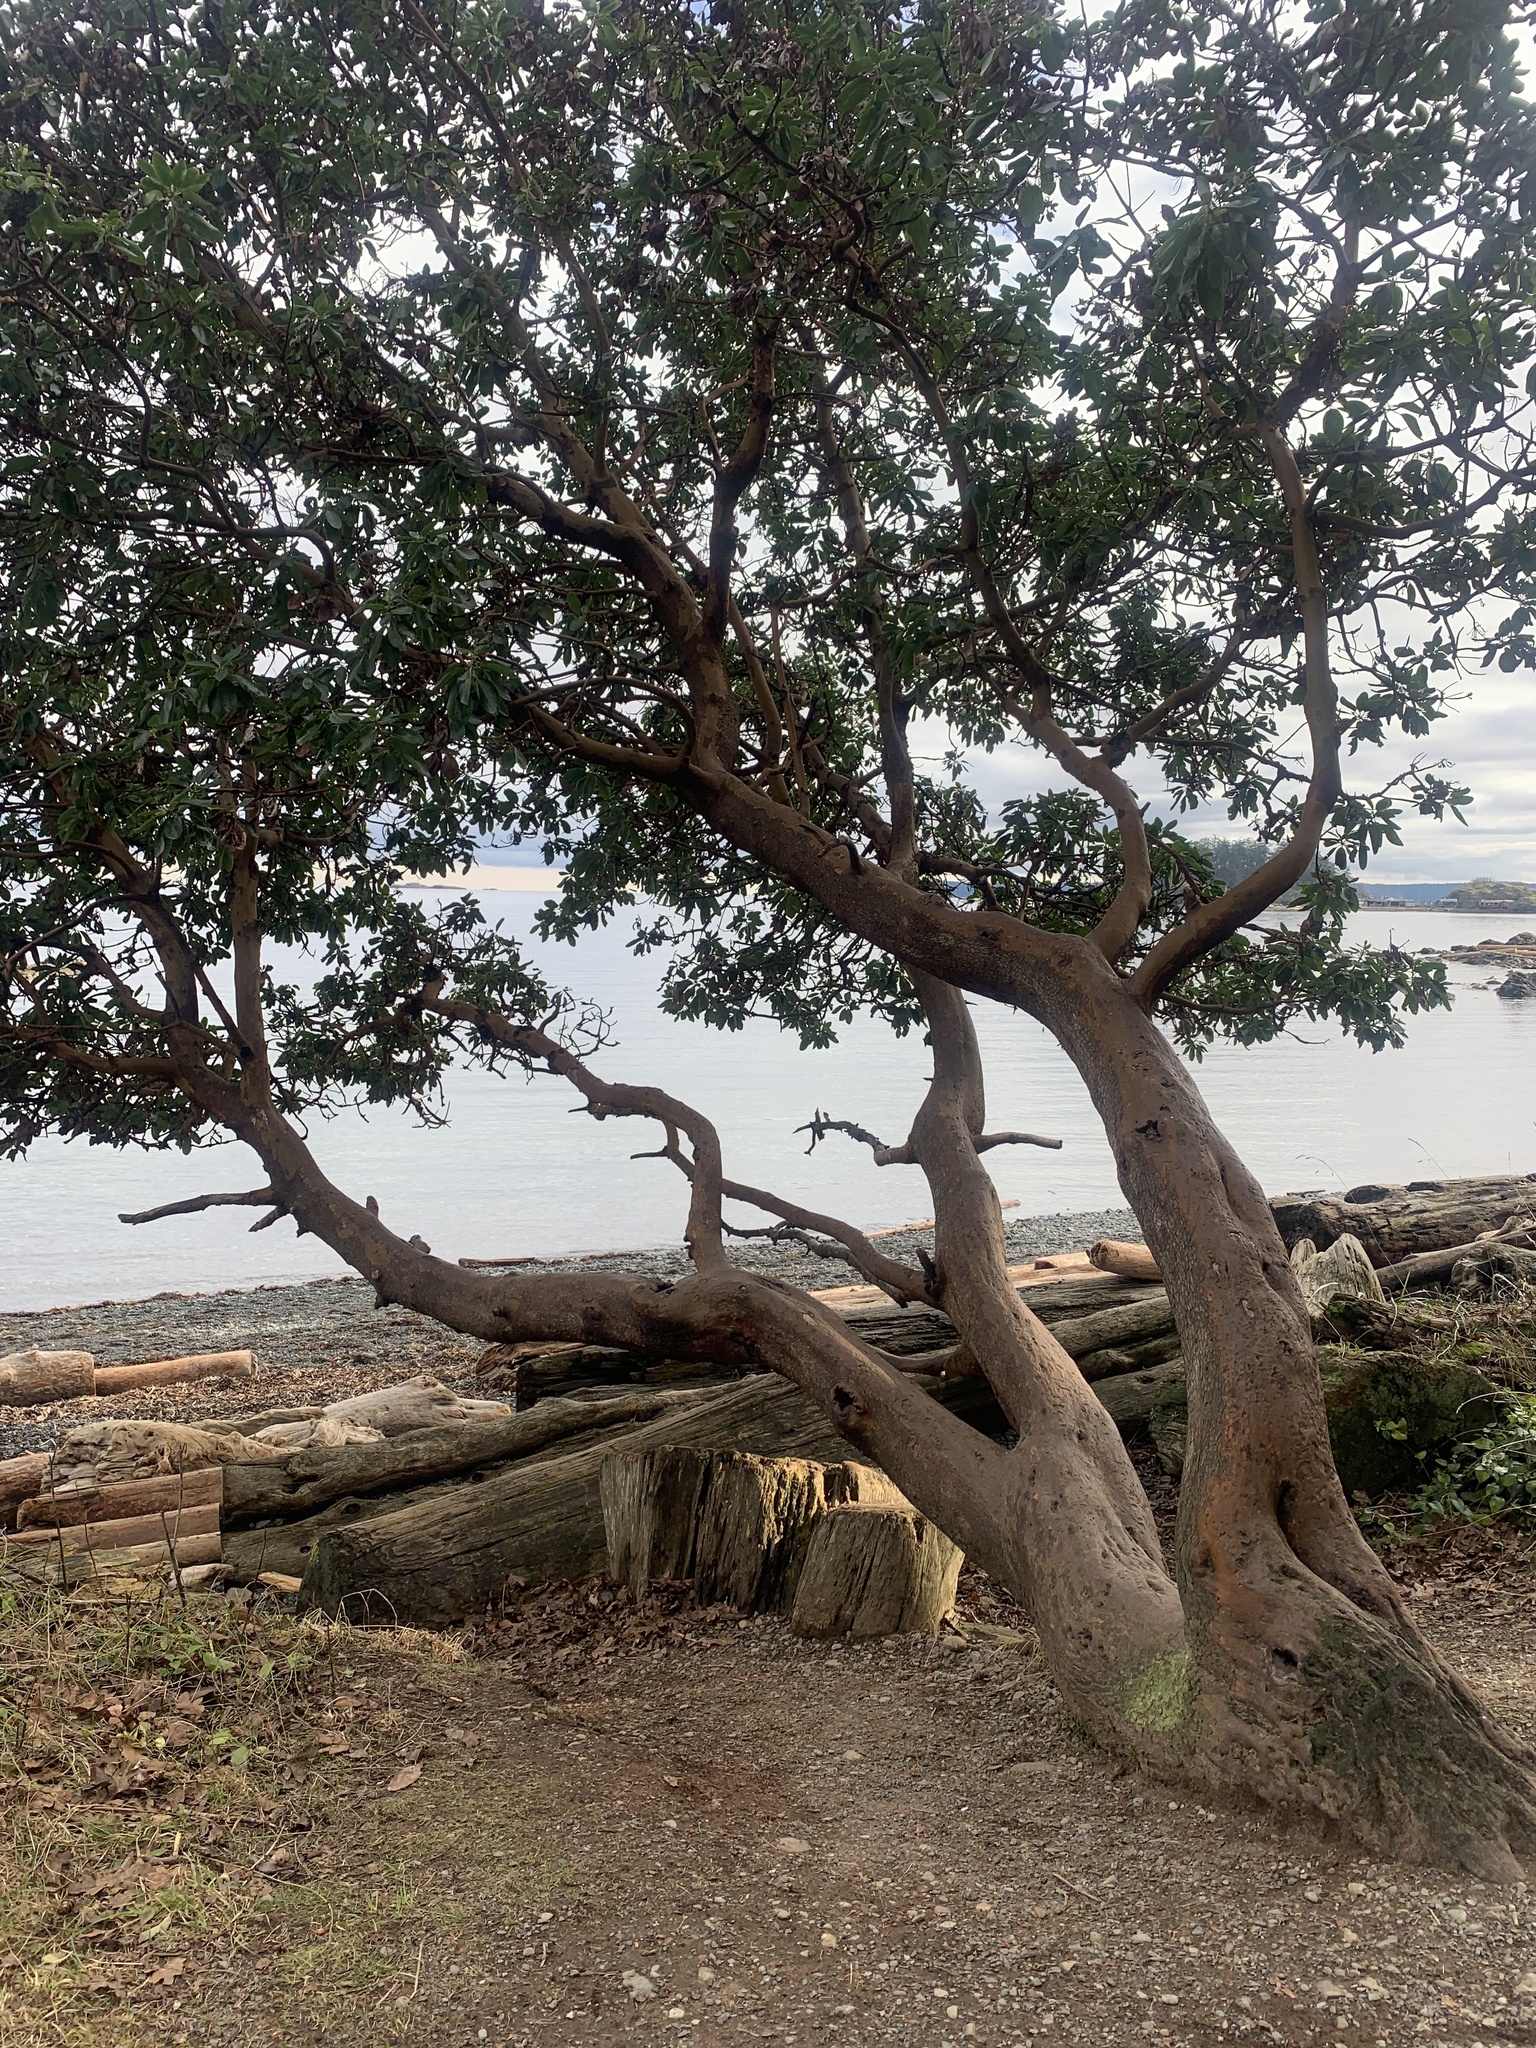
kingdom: Plantae
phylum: Tracheophyta
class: Magnoliopsida
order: Ericales
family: Ericaceae
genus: Arbutus
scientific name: Arbutus menziesii
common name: Pacific madrone
